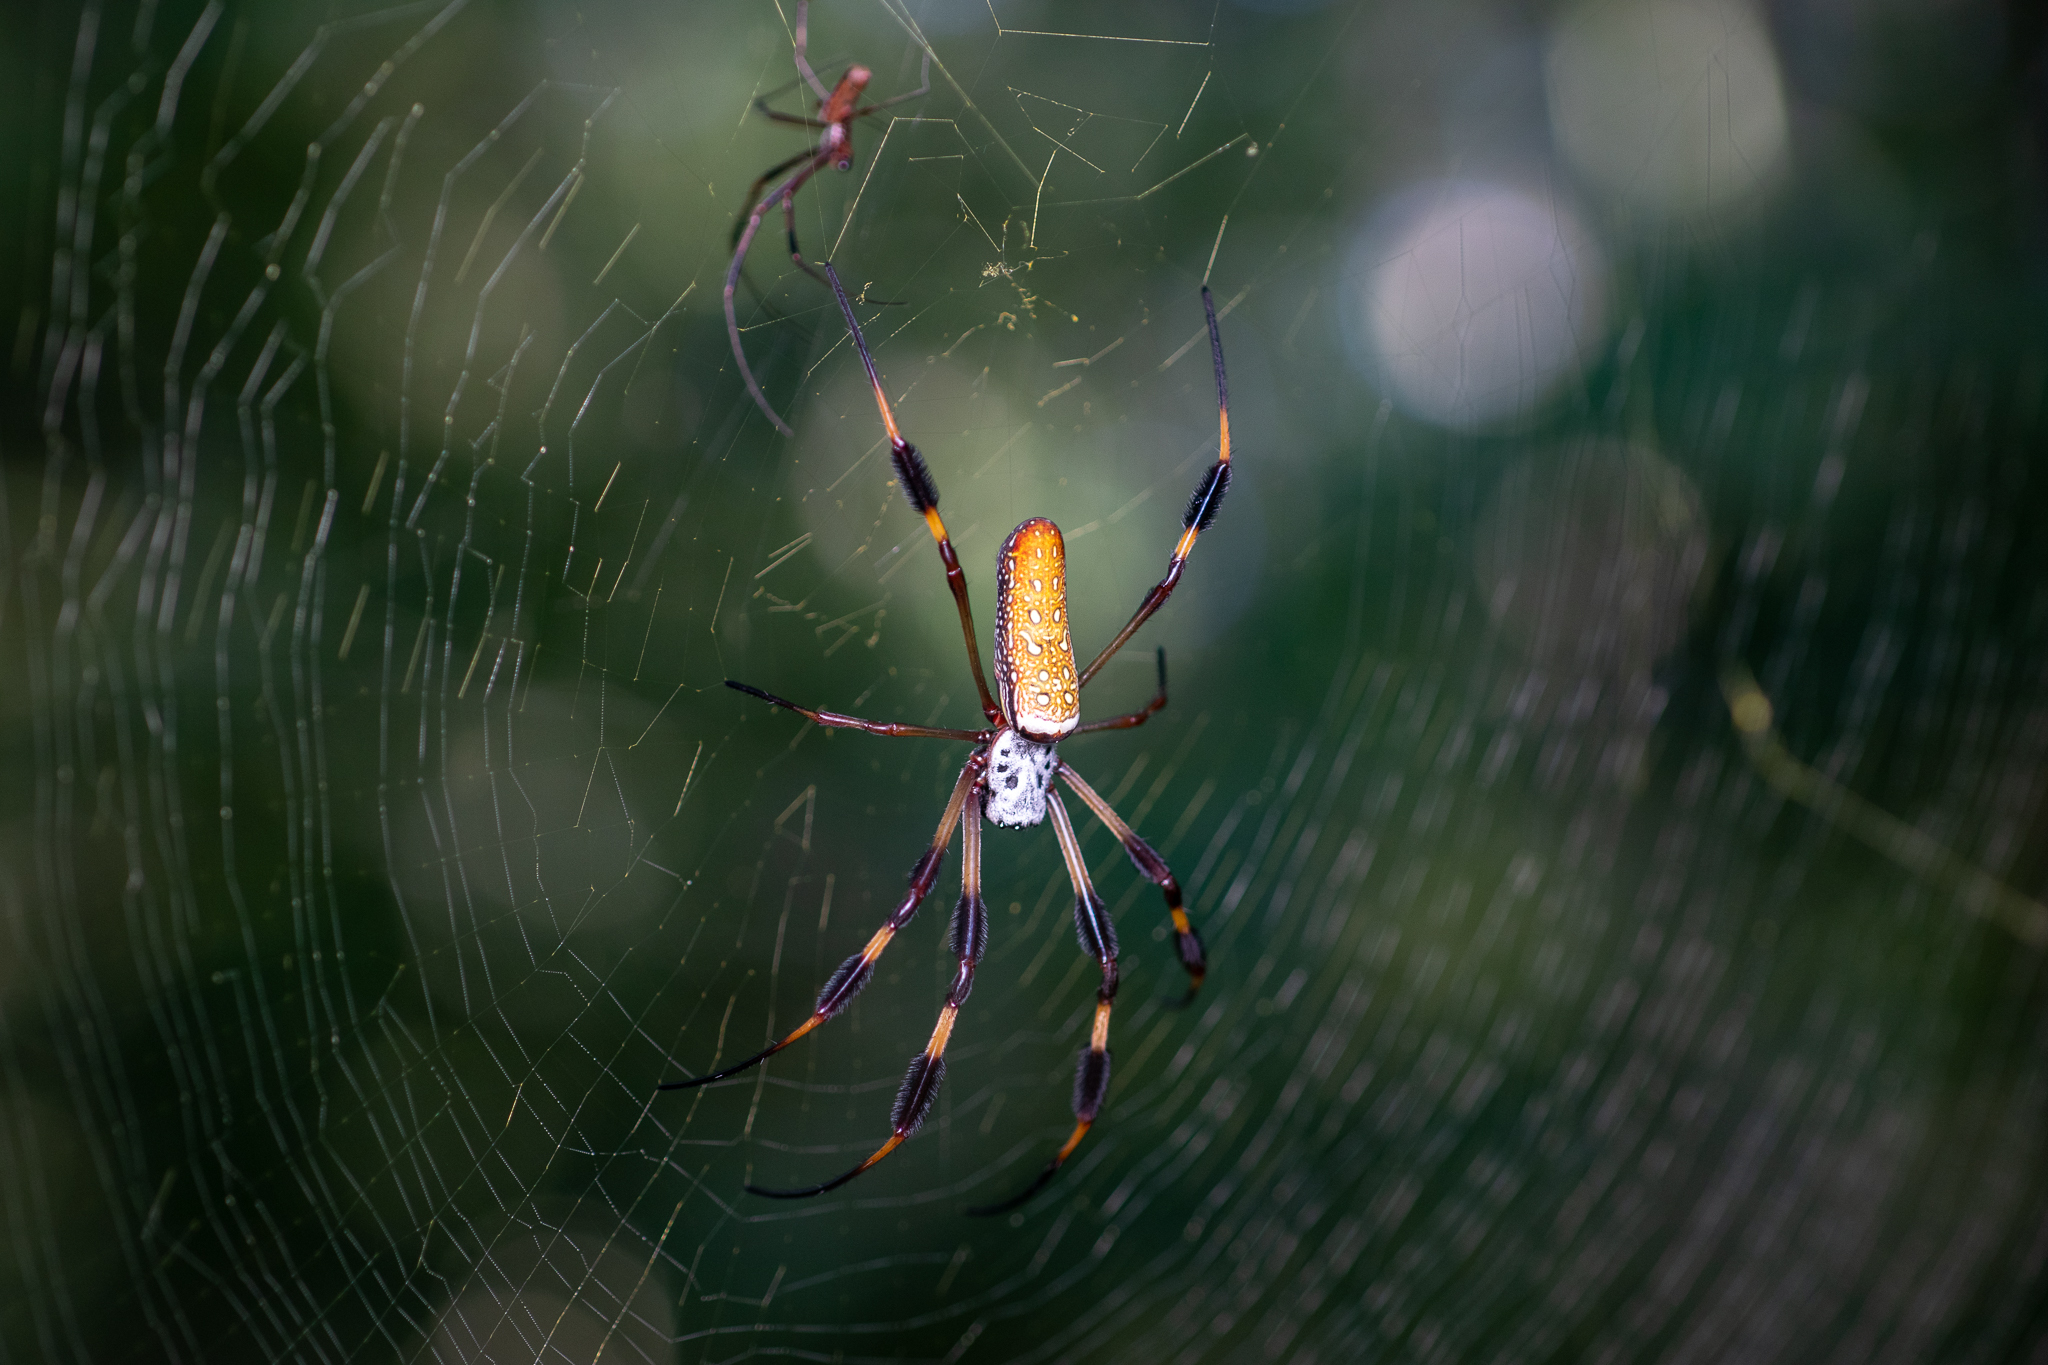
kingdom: Animalia
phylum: Arthropoda
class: Arachnida
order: Araneae
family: Araneidae
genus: Trichonephila
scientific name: Trichonephila clavipes
